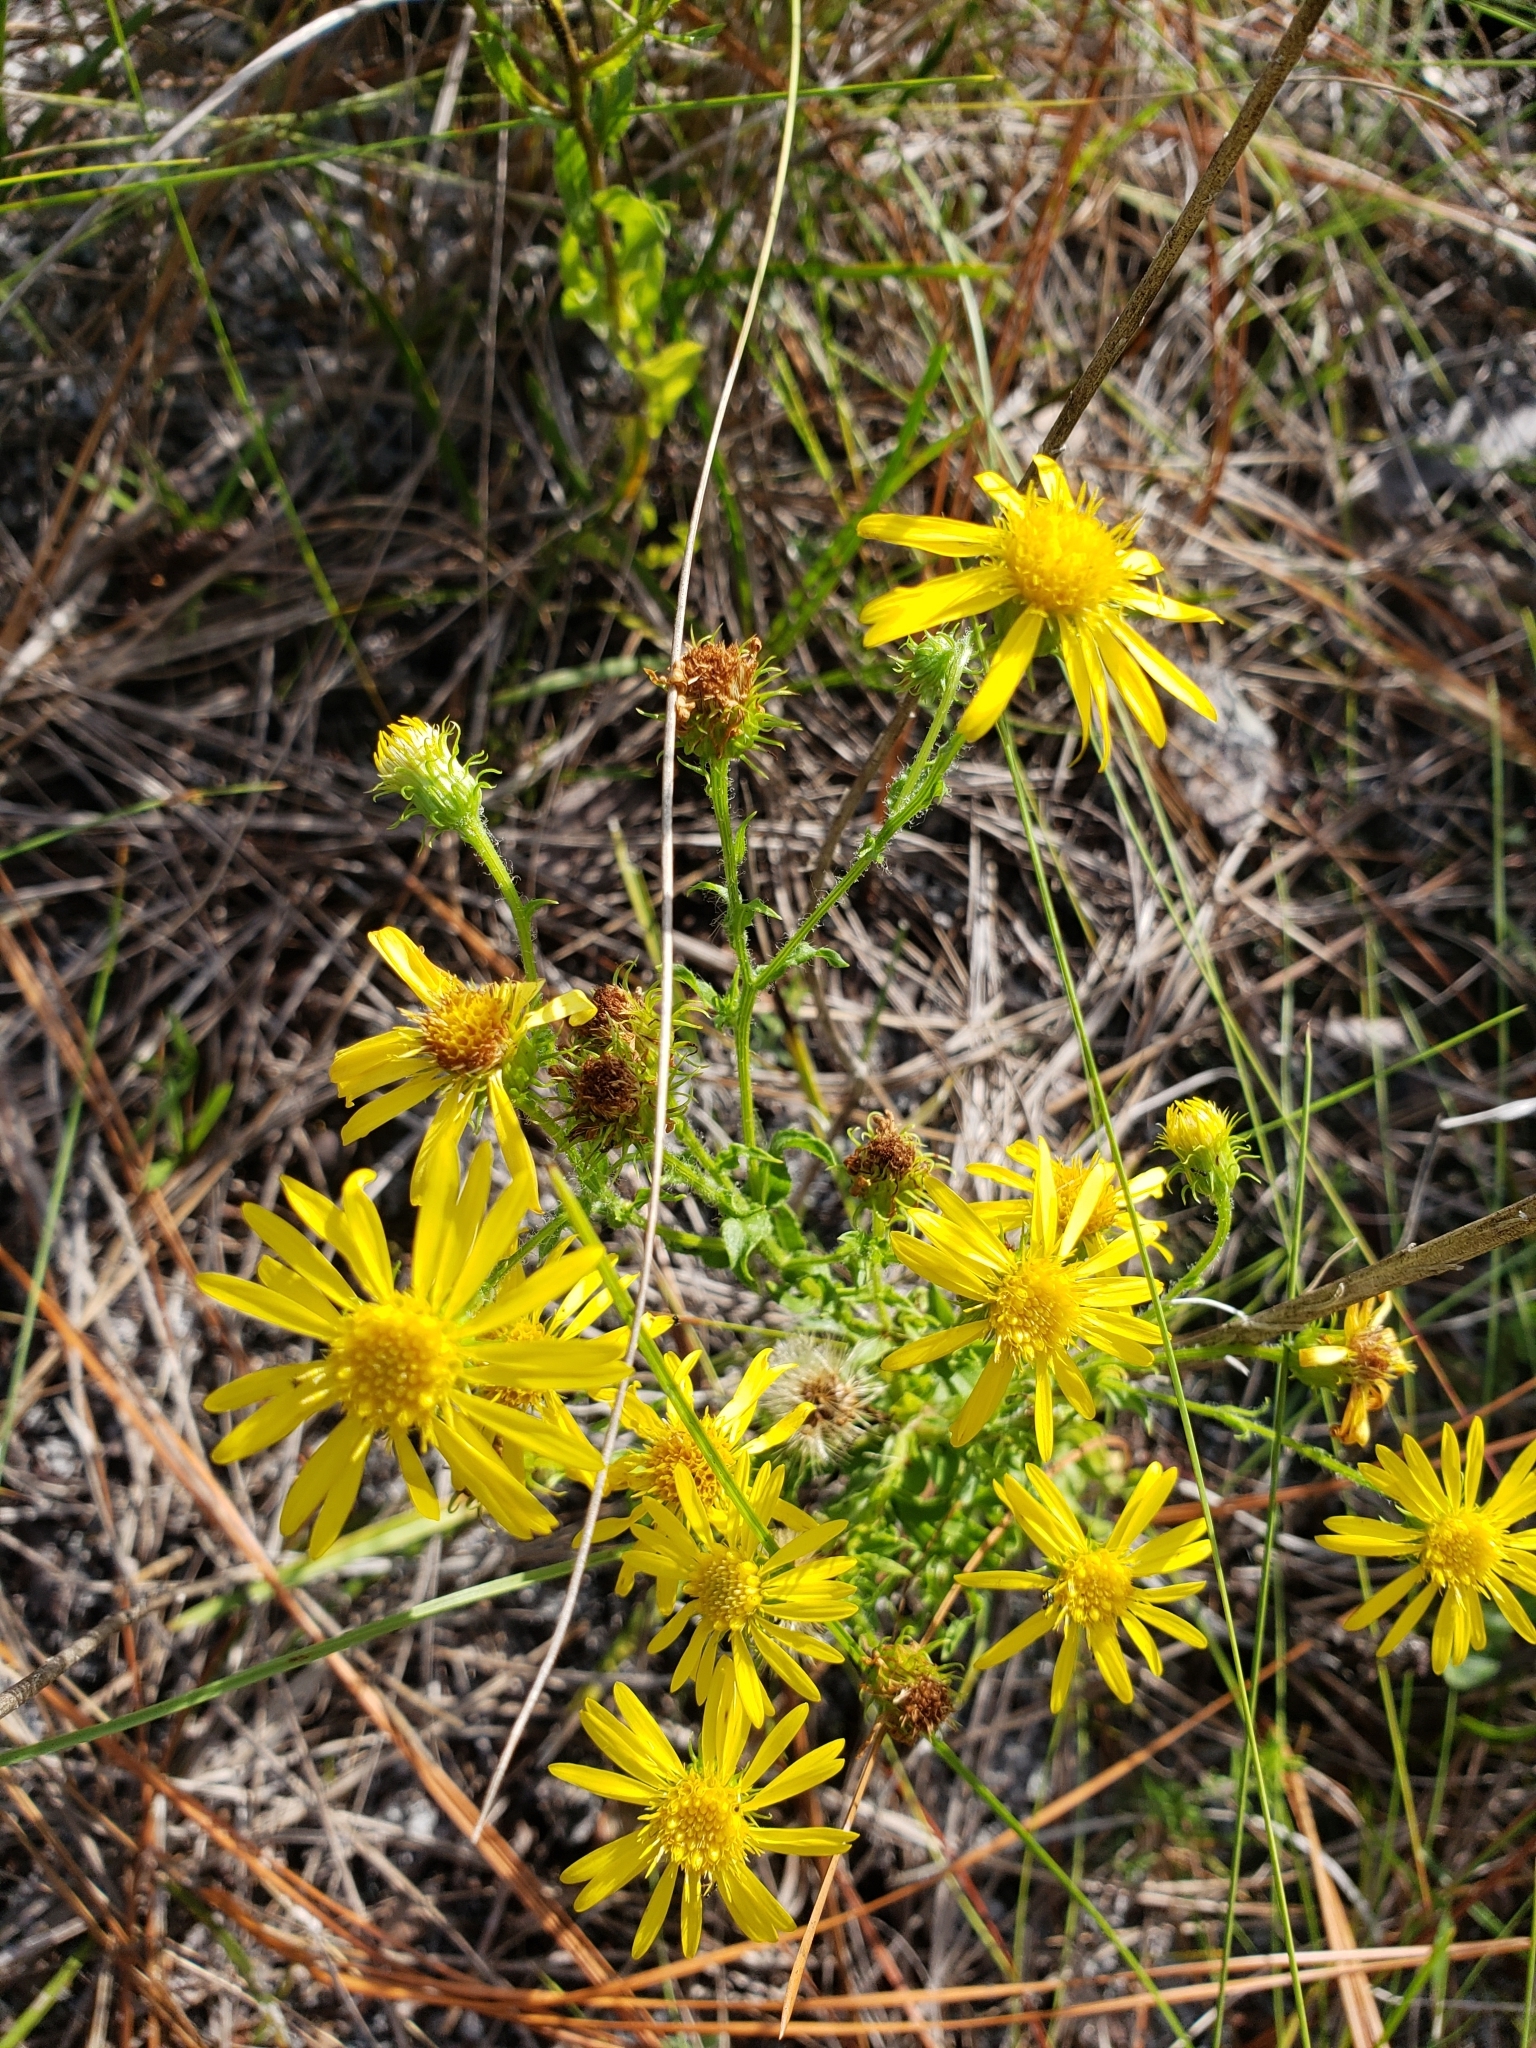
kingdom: Plantae
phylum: Tracheophyta
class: Magnoliopsida
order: Asterales
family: Asteraceae
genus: Chrysopsis
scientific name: Chrysopsis subulata
